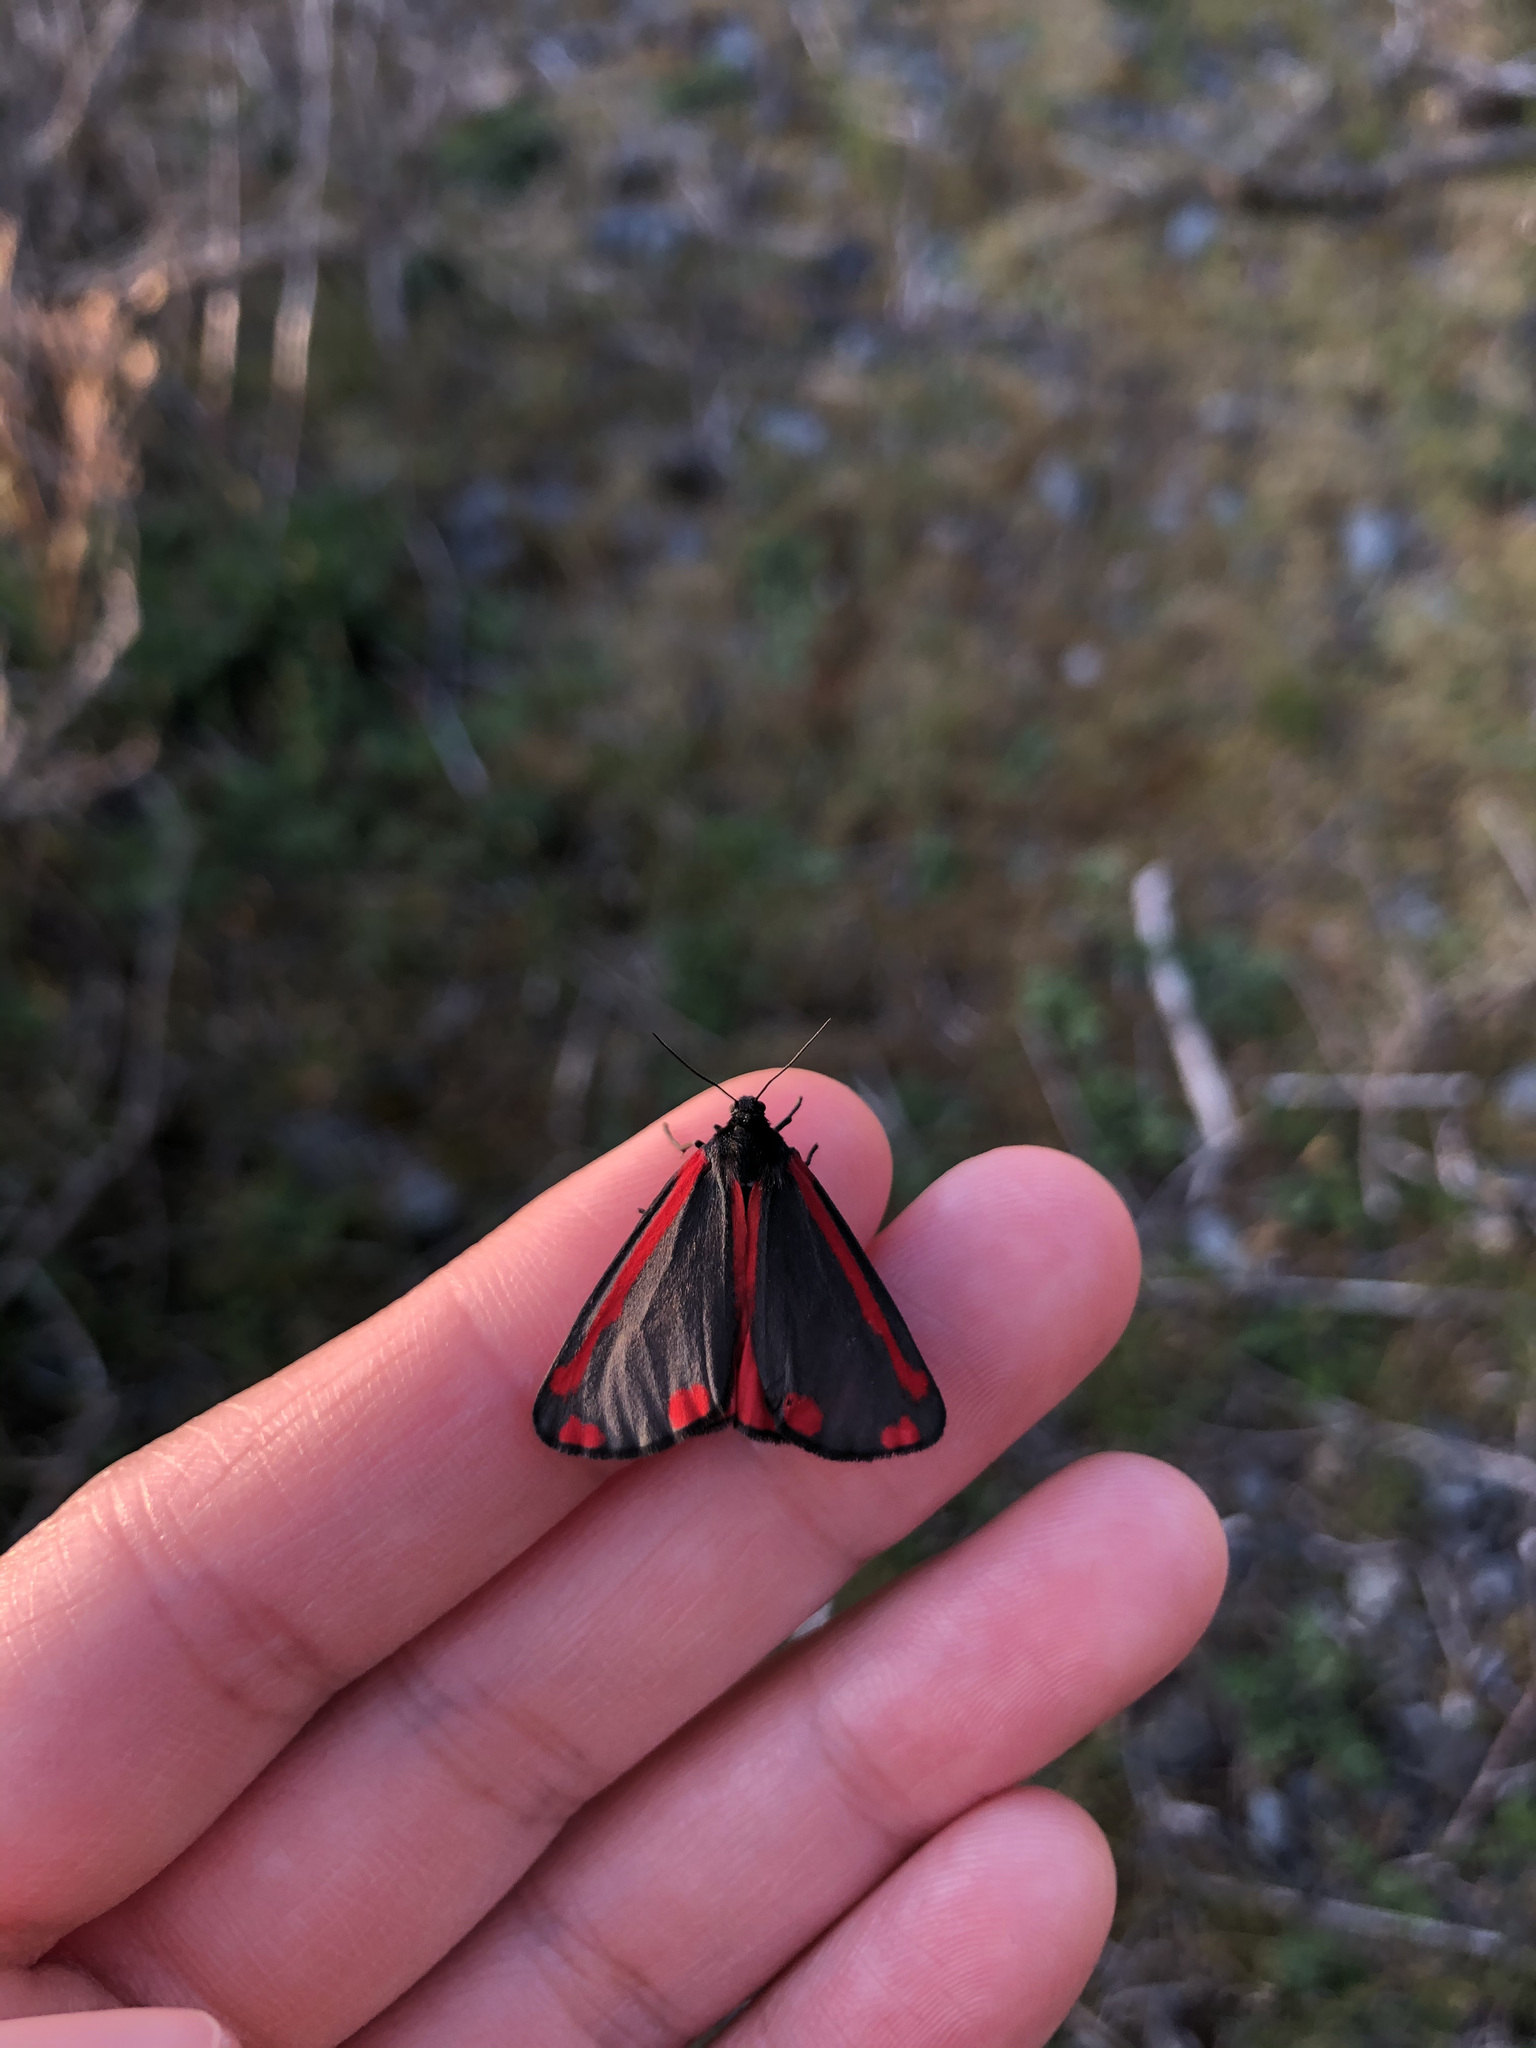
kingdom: Animalia
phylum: Arthropoda
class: Insecta
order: Lepidoptera
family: Erebidae
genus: Tyria
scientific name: Tyria jacobaeae
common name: Cinnabar
